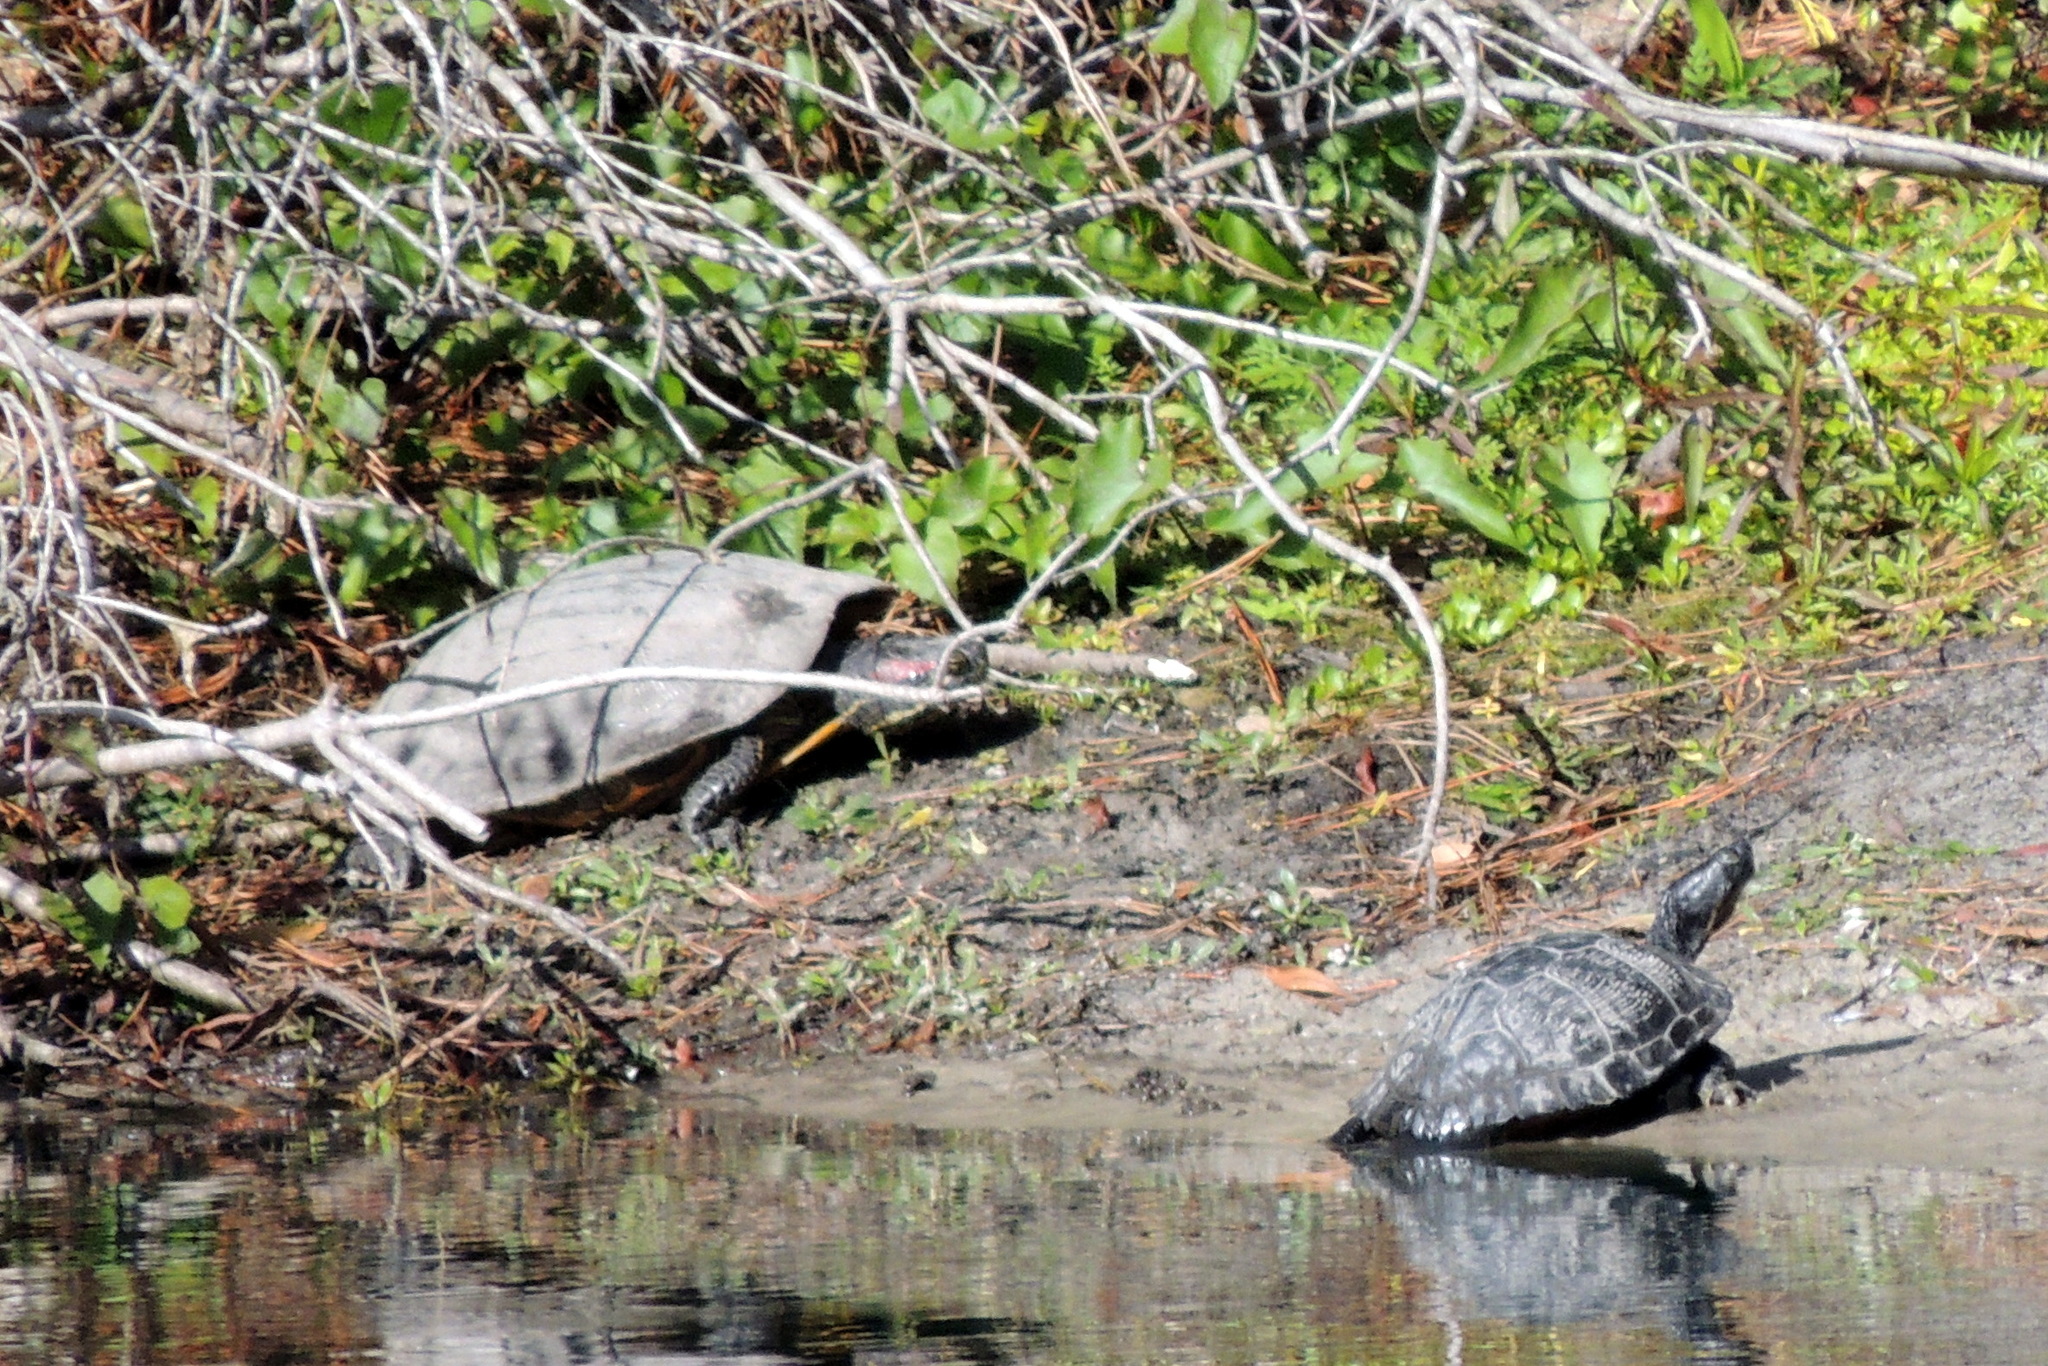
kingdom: Animalia
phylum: Chordata
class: Testudines
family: Emydidae
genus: Trachemys
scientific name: Trachemys scripta
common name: Slider
